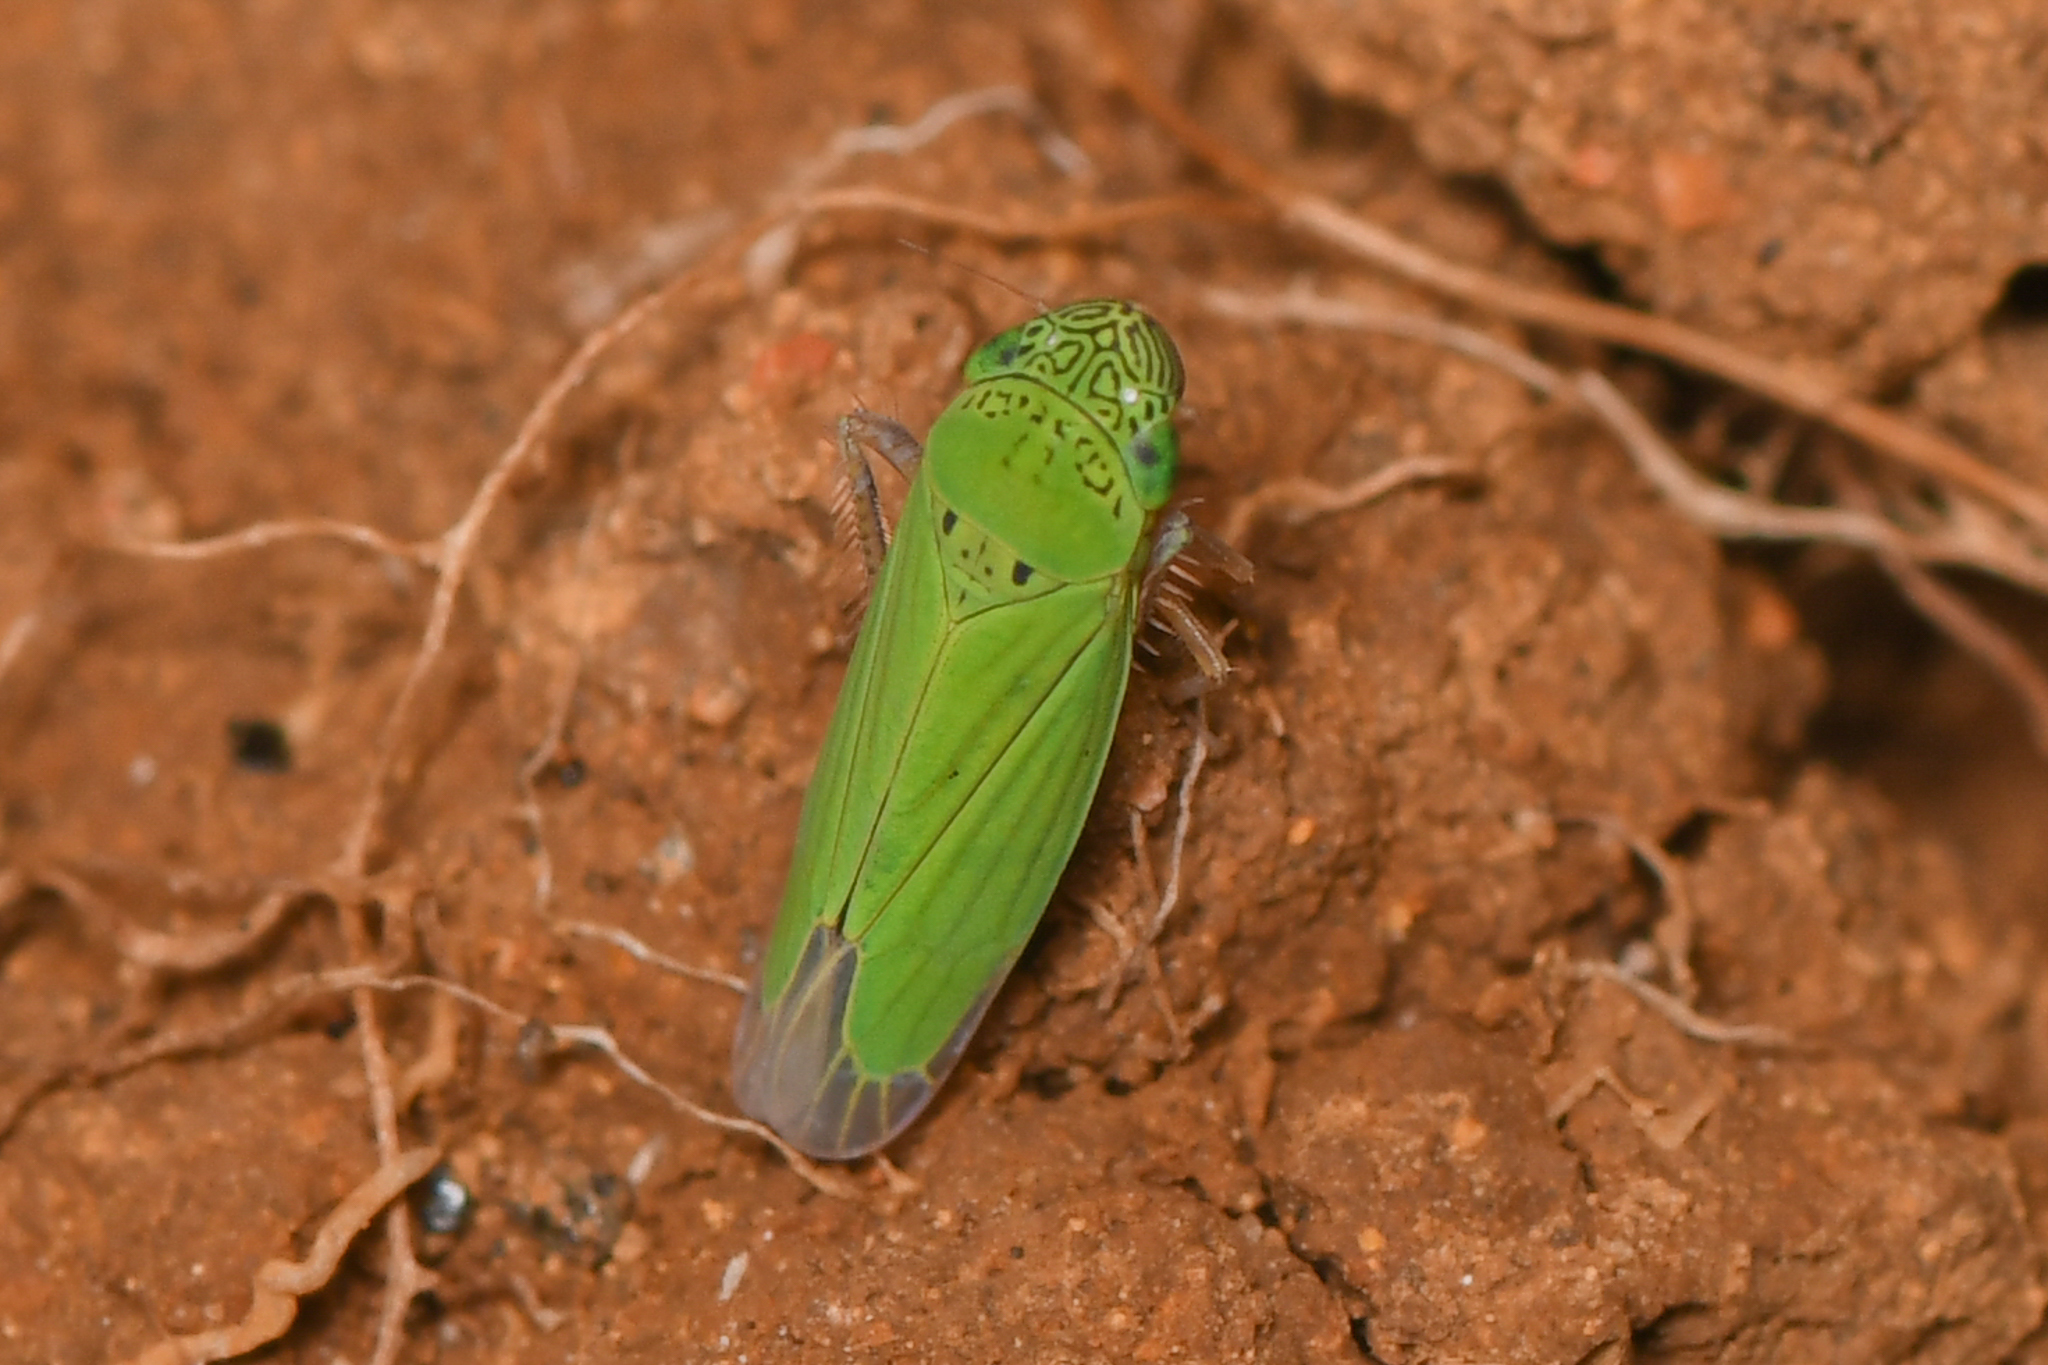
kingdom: Animalia
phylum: Arthropoda
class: Insecta
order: Hemiptera
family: Cicadellidae
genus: Hortensia
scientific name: Hortensia similis
